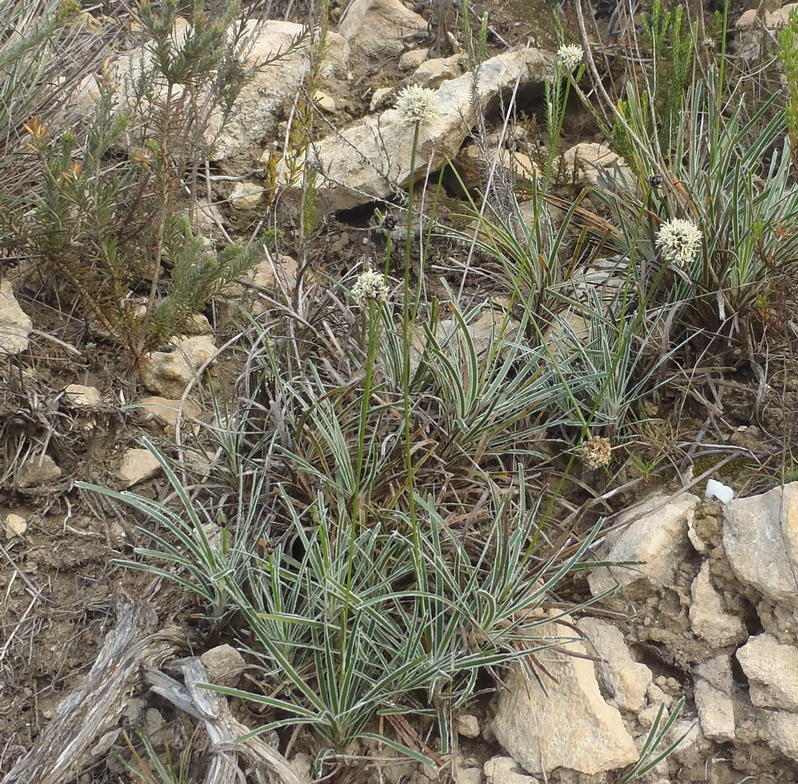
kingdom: Plantae
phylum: Tracheophyta
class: Liliopsida
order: Poales
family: Cyperaceae
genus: Ficinia
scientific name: Ficinia truncata
